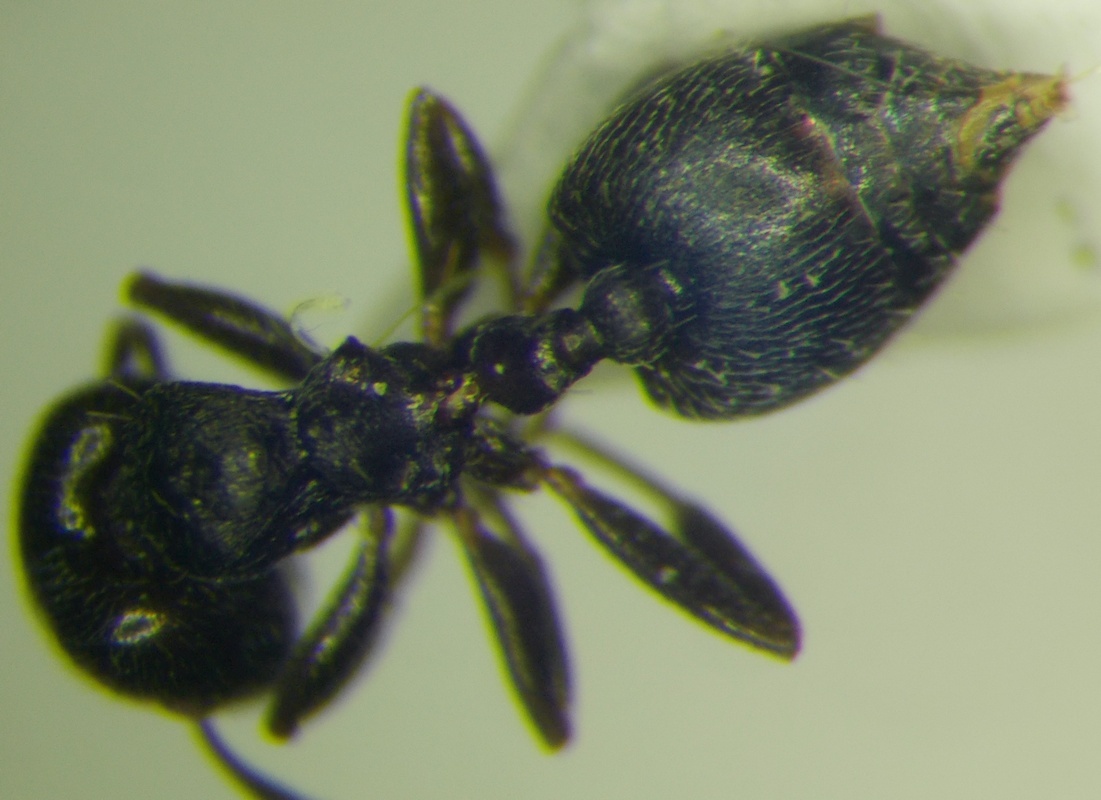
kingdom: Animalia
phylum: Arthropoda
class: Insecta
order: Hymenoptera
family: Formicidae
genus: Crematogaster
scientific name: Crematogaster atra
